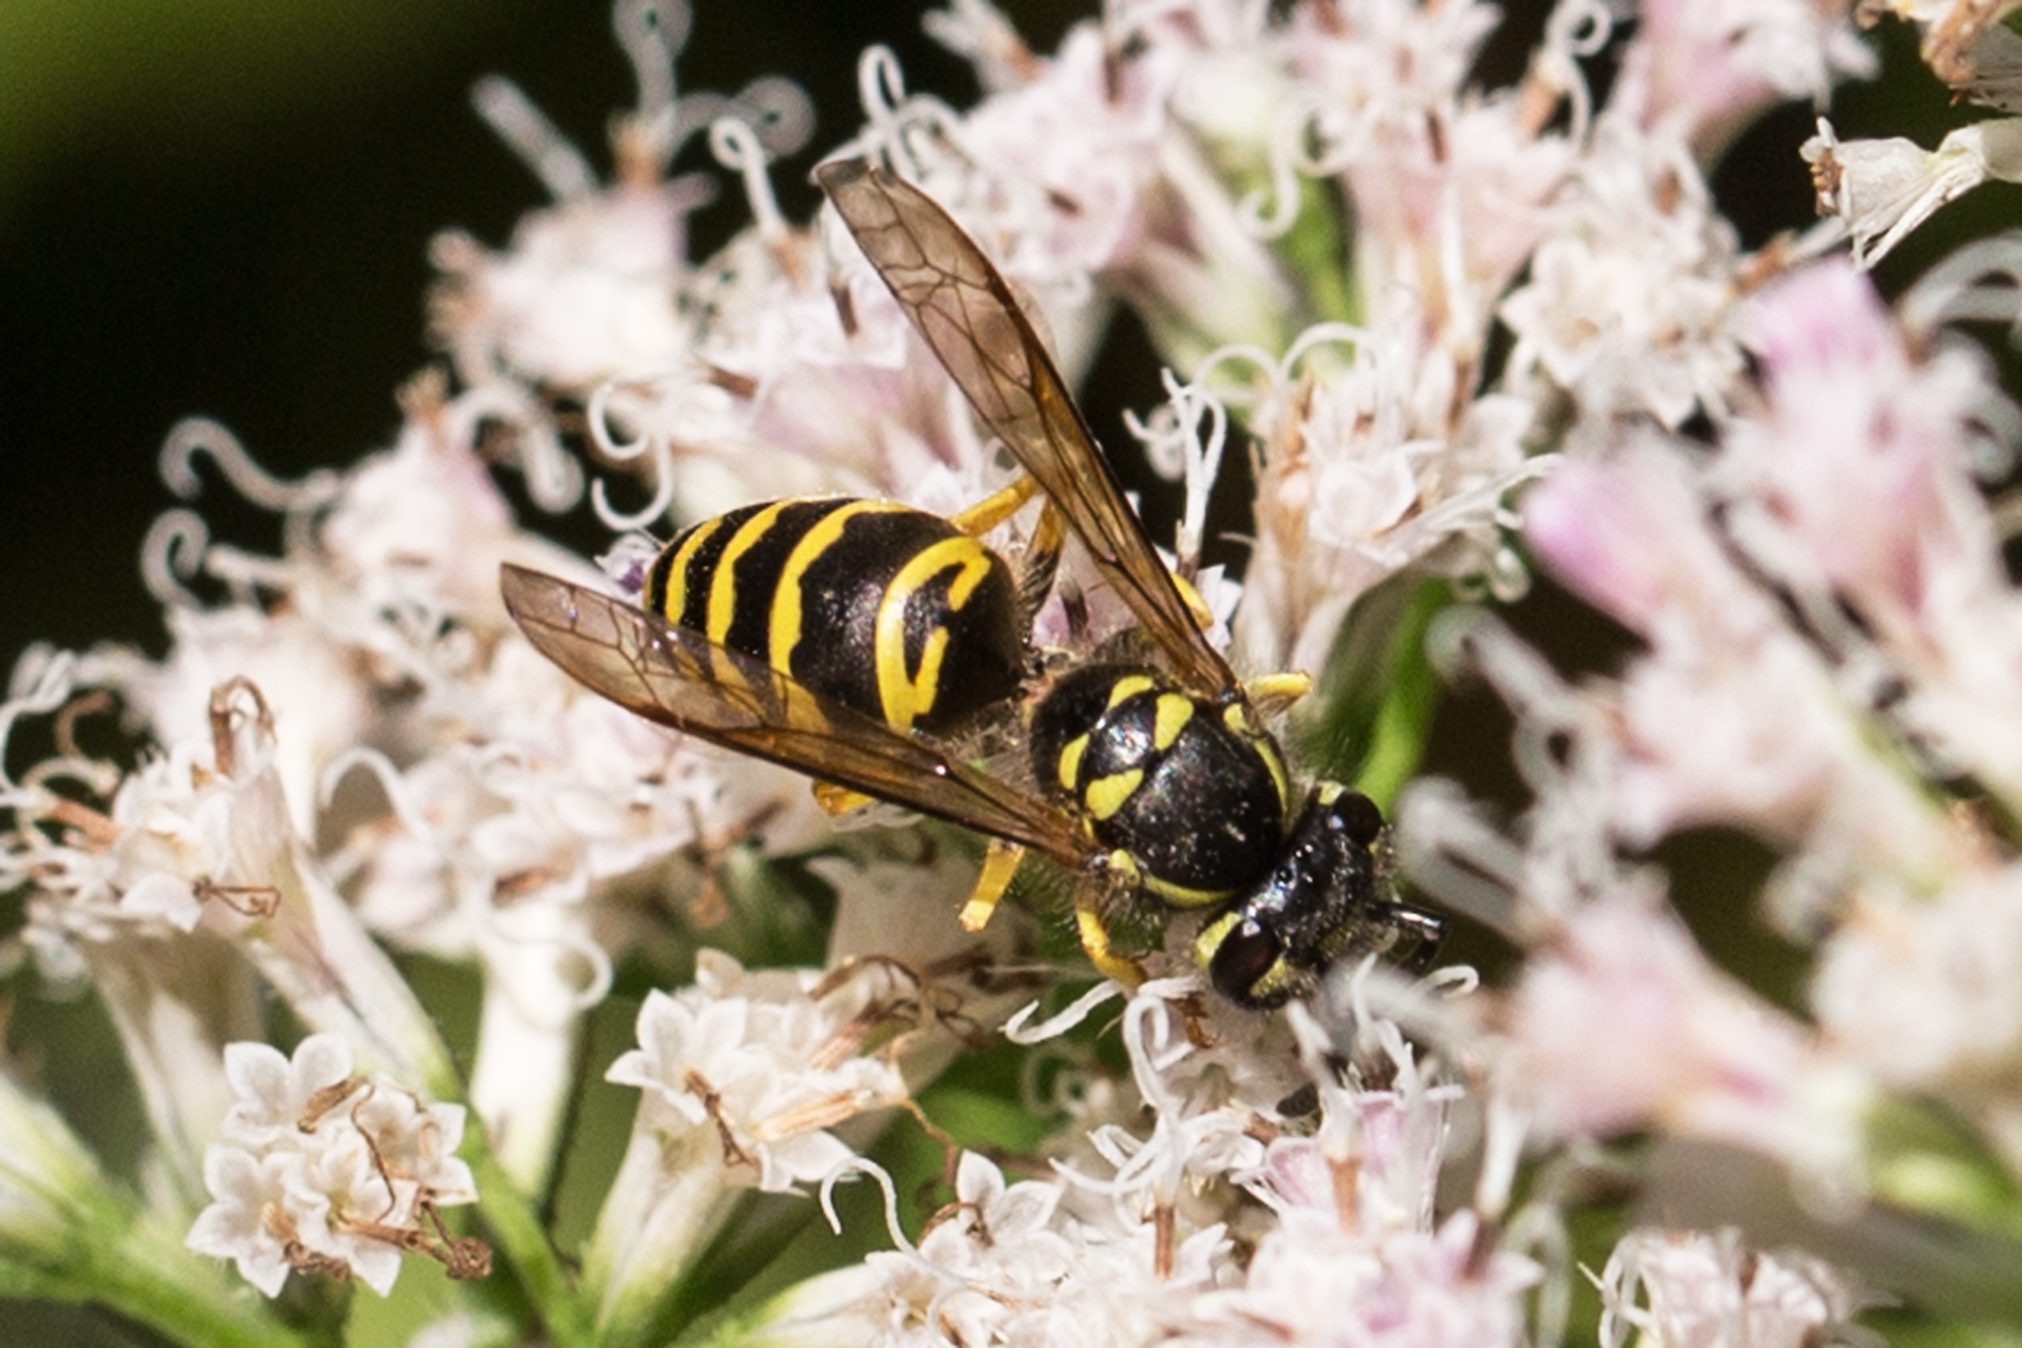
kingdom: Animalia
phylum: Arthropoda
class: Insecta
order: Hymenoptera
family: Vespidae
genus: Vespula
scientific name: Vespula maculifrons
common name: Eastern yellowjacket
